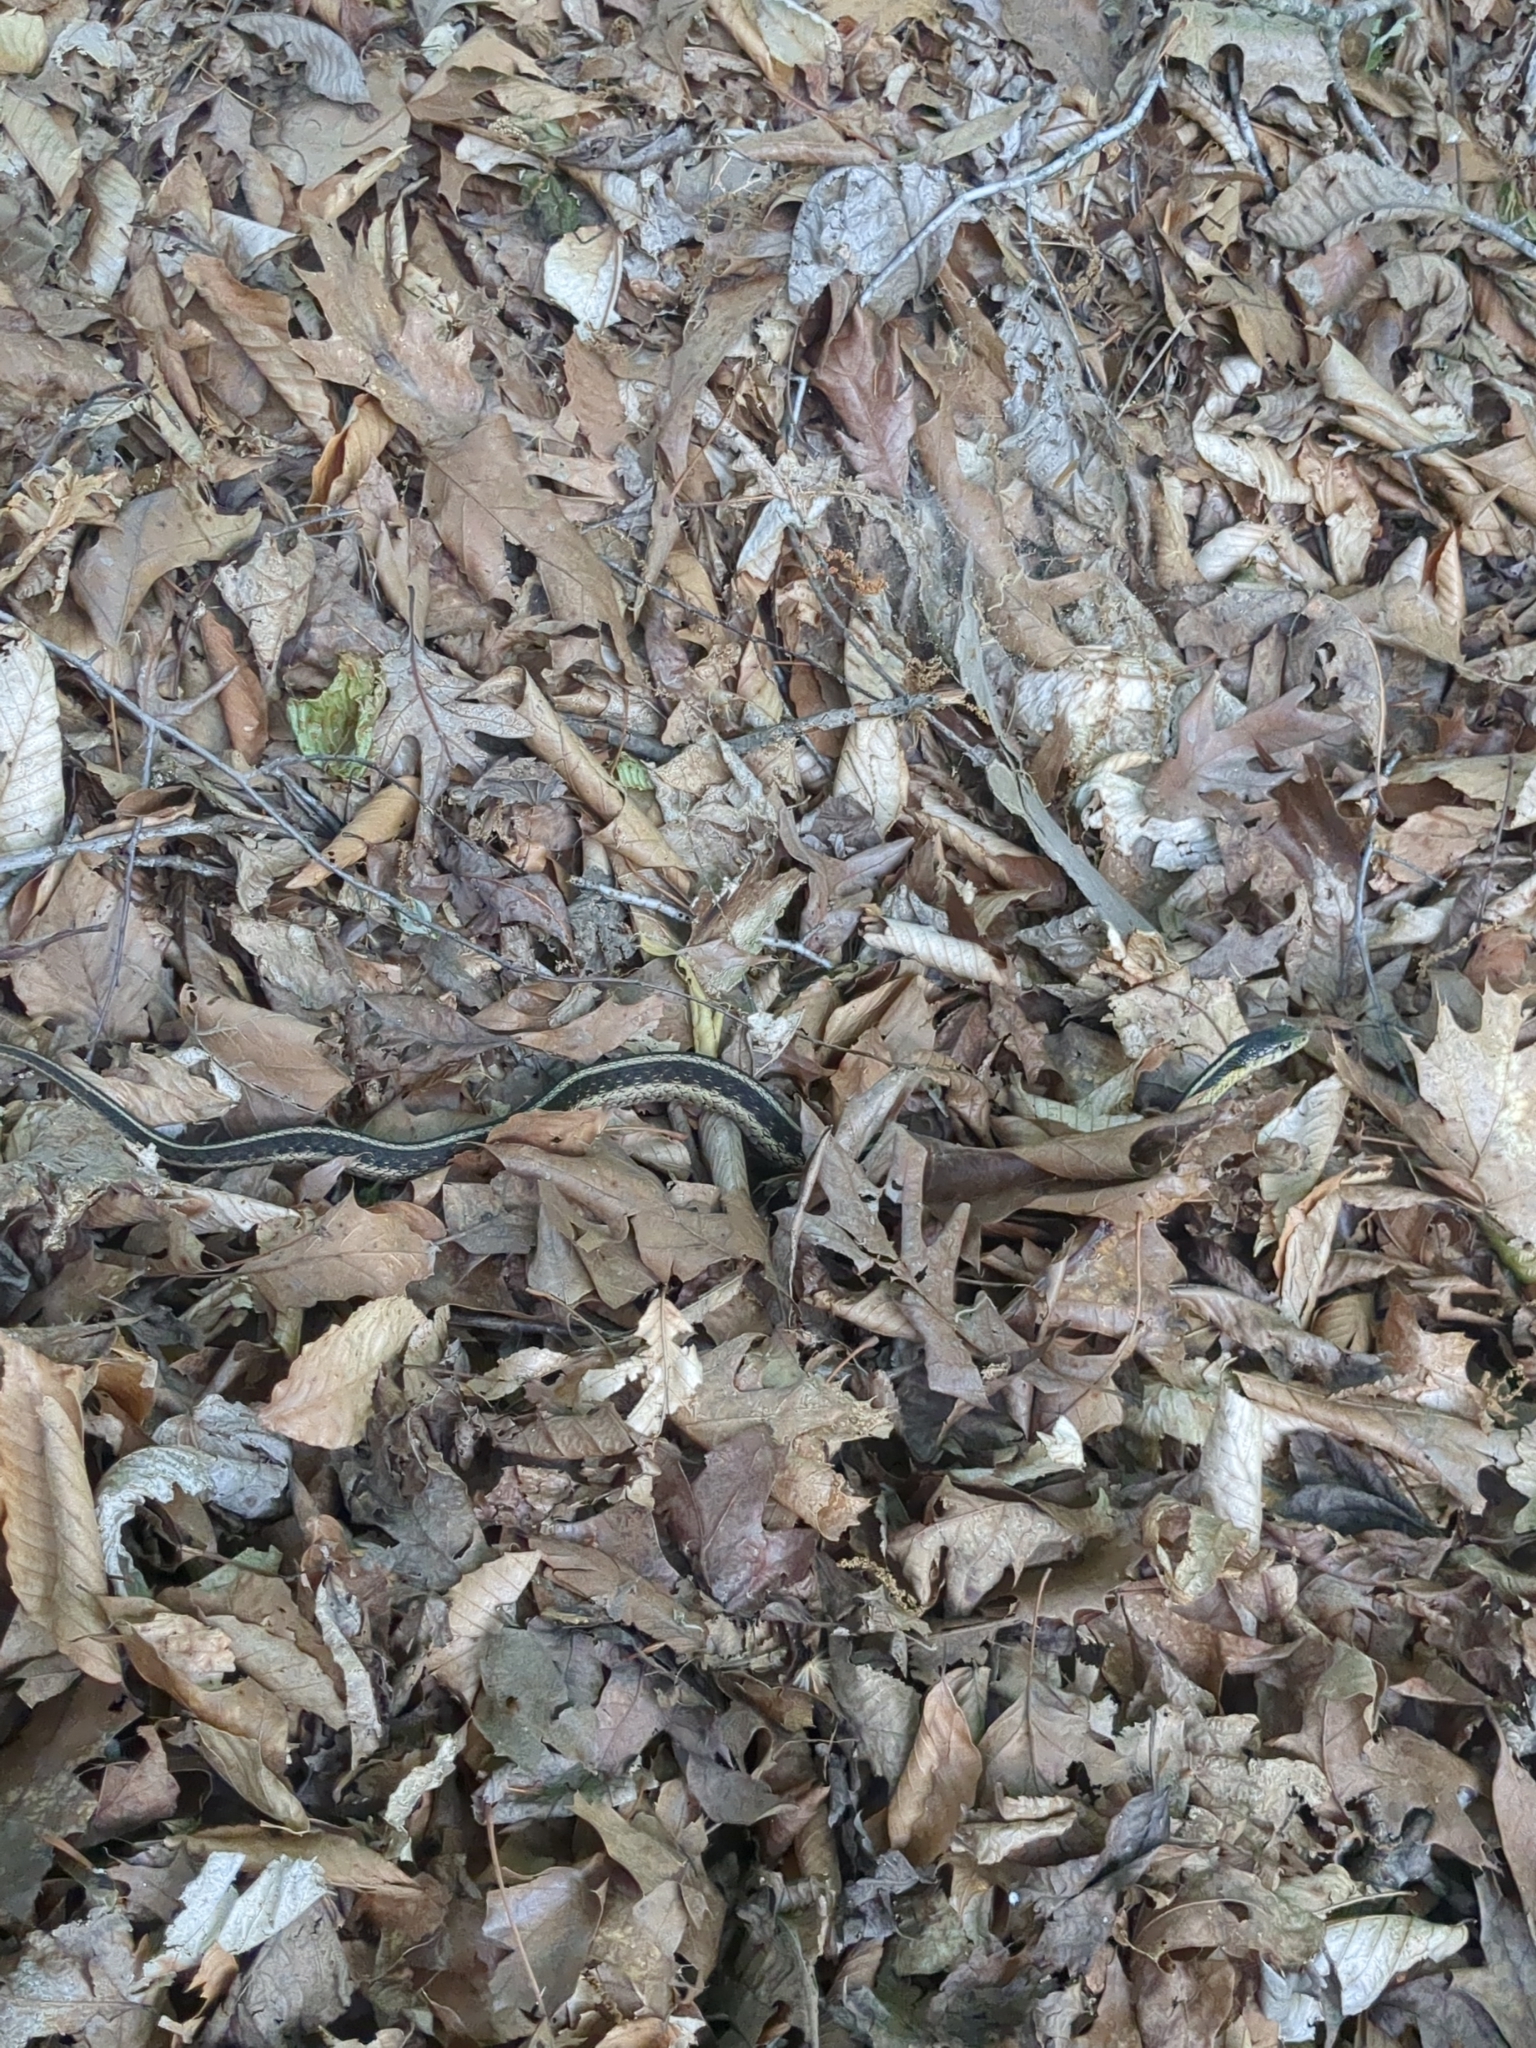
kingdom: Animalia
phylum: Chordata
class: Squamata
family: Colubridae
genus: Thamnophis
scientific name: Thamnophis sirtalis
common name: Common garter snake
